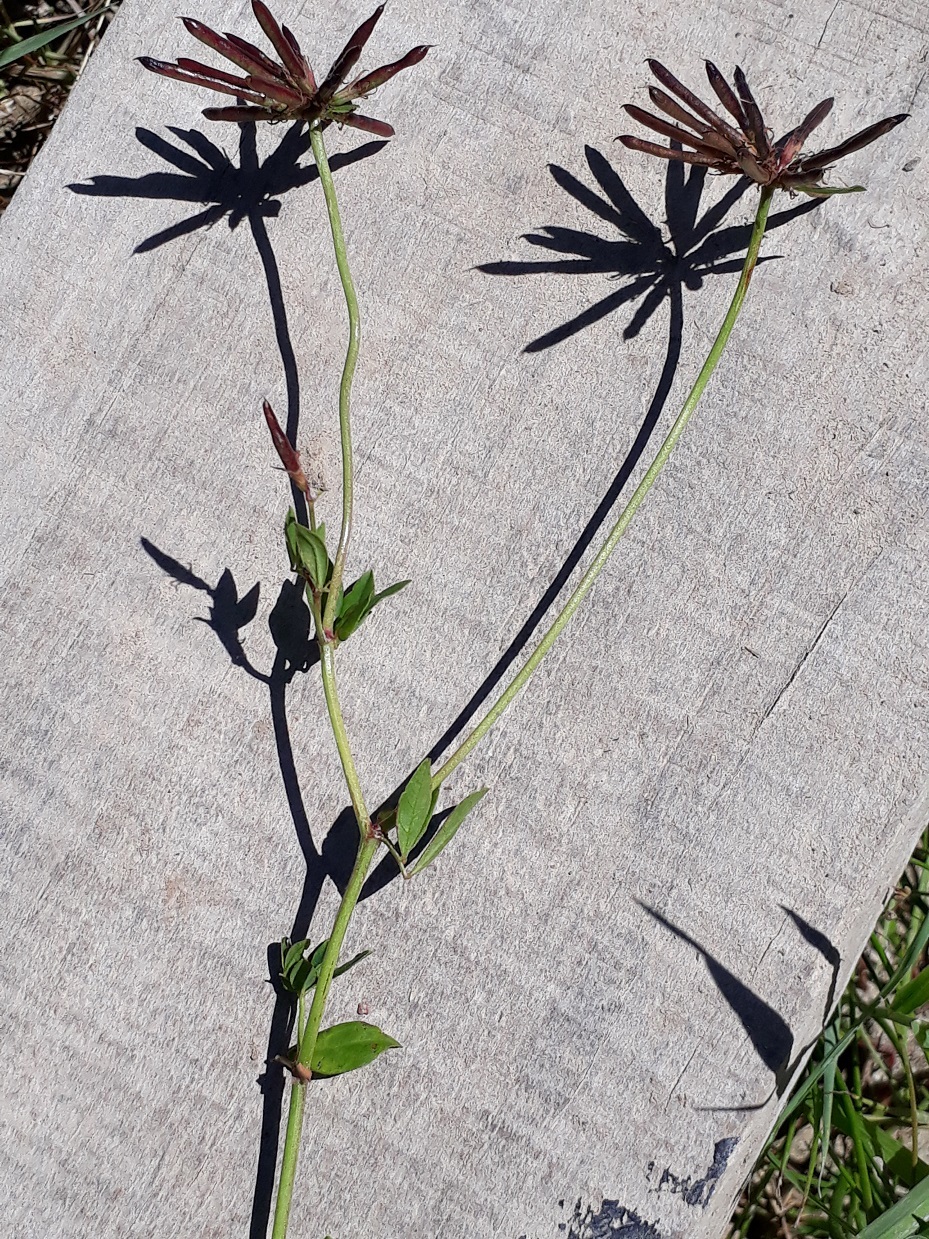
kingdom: Plantae
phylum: Tracheophyta
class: Magnoliopsida
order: Fabales
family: Fabaceae
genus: Lotus
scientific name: Lotus pedunculatus
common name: Greater birdsfoot-trefoil
